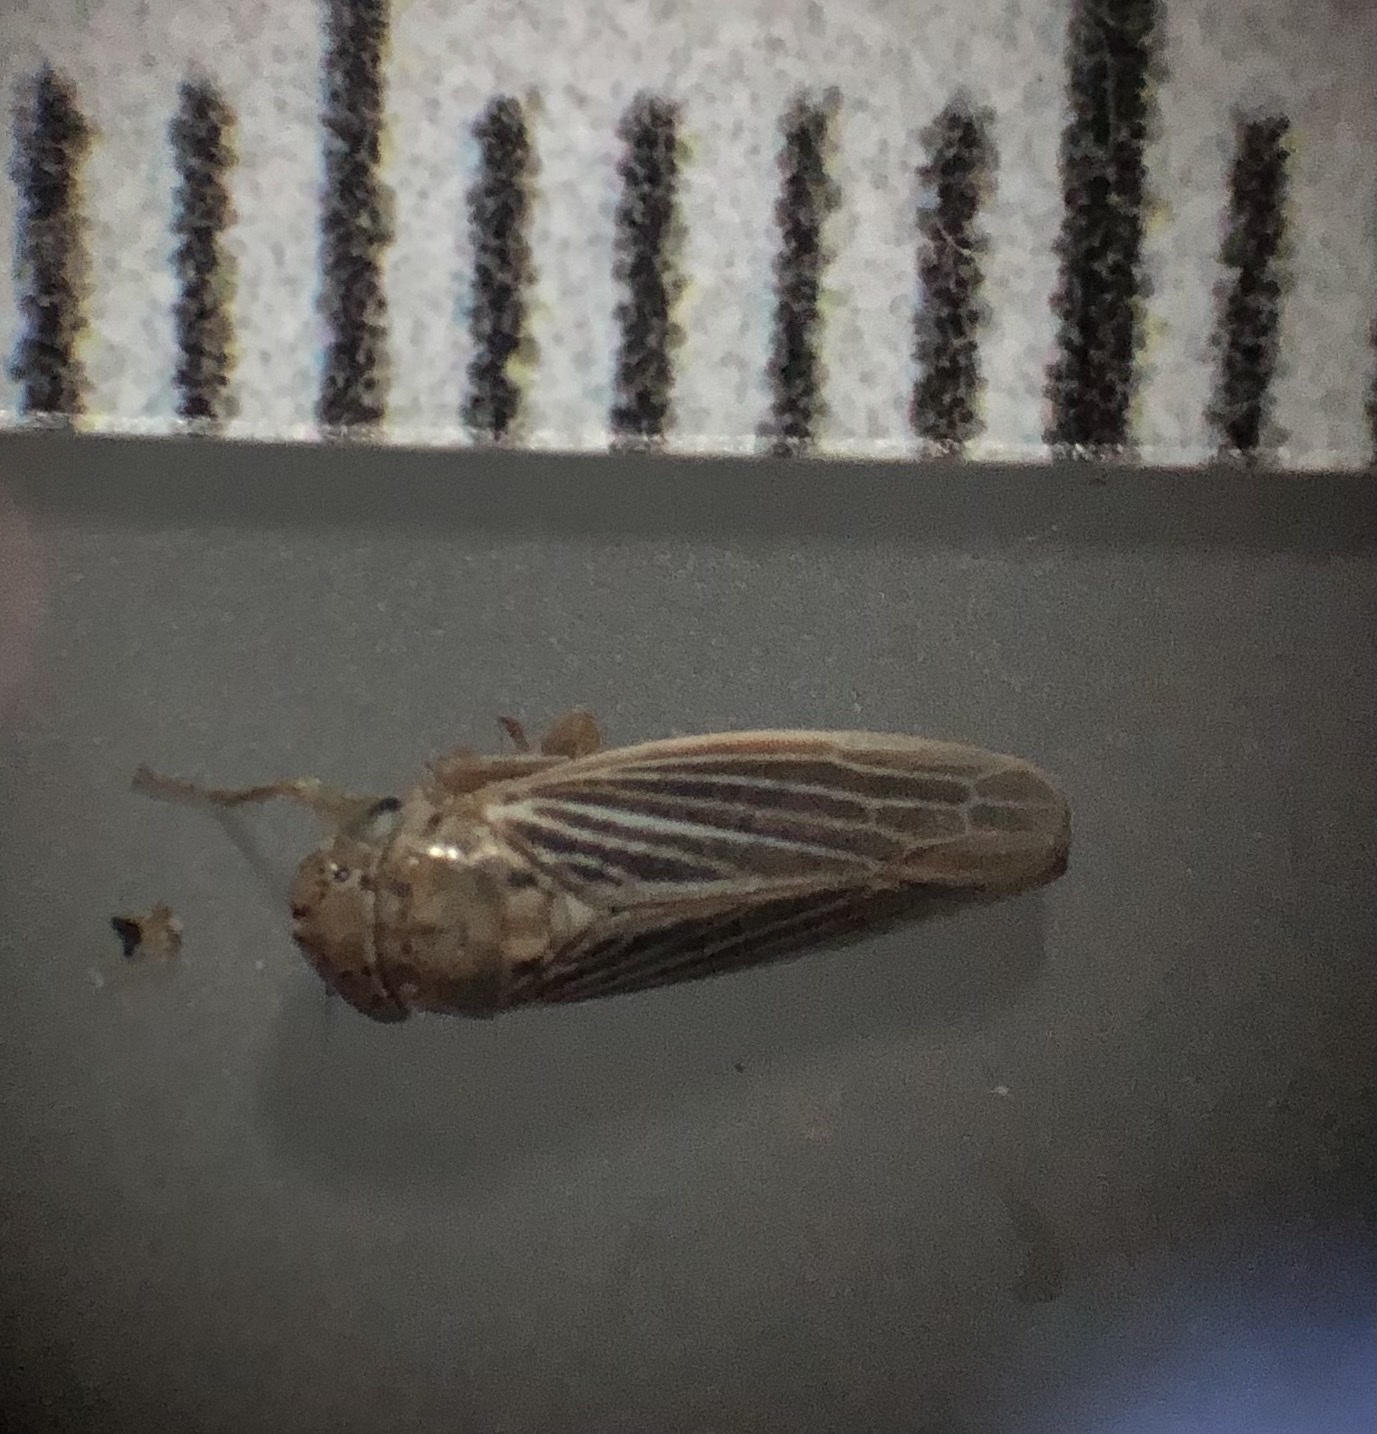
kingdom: Animalia
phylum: Arthropoda
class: Insecta
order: Hemiptera
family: Cicadellidae
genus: Ciminius
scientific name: Ciminius hartii
